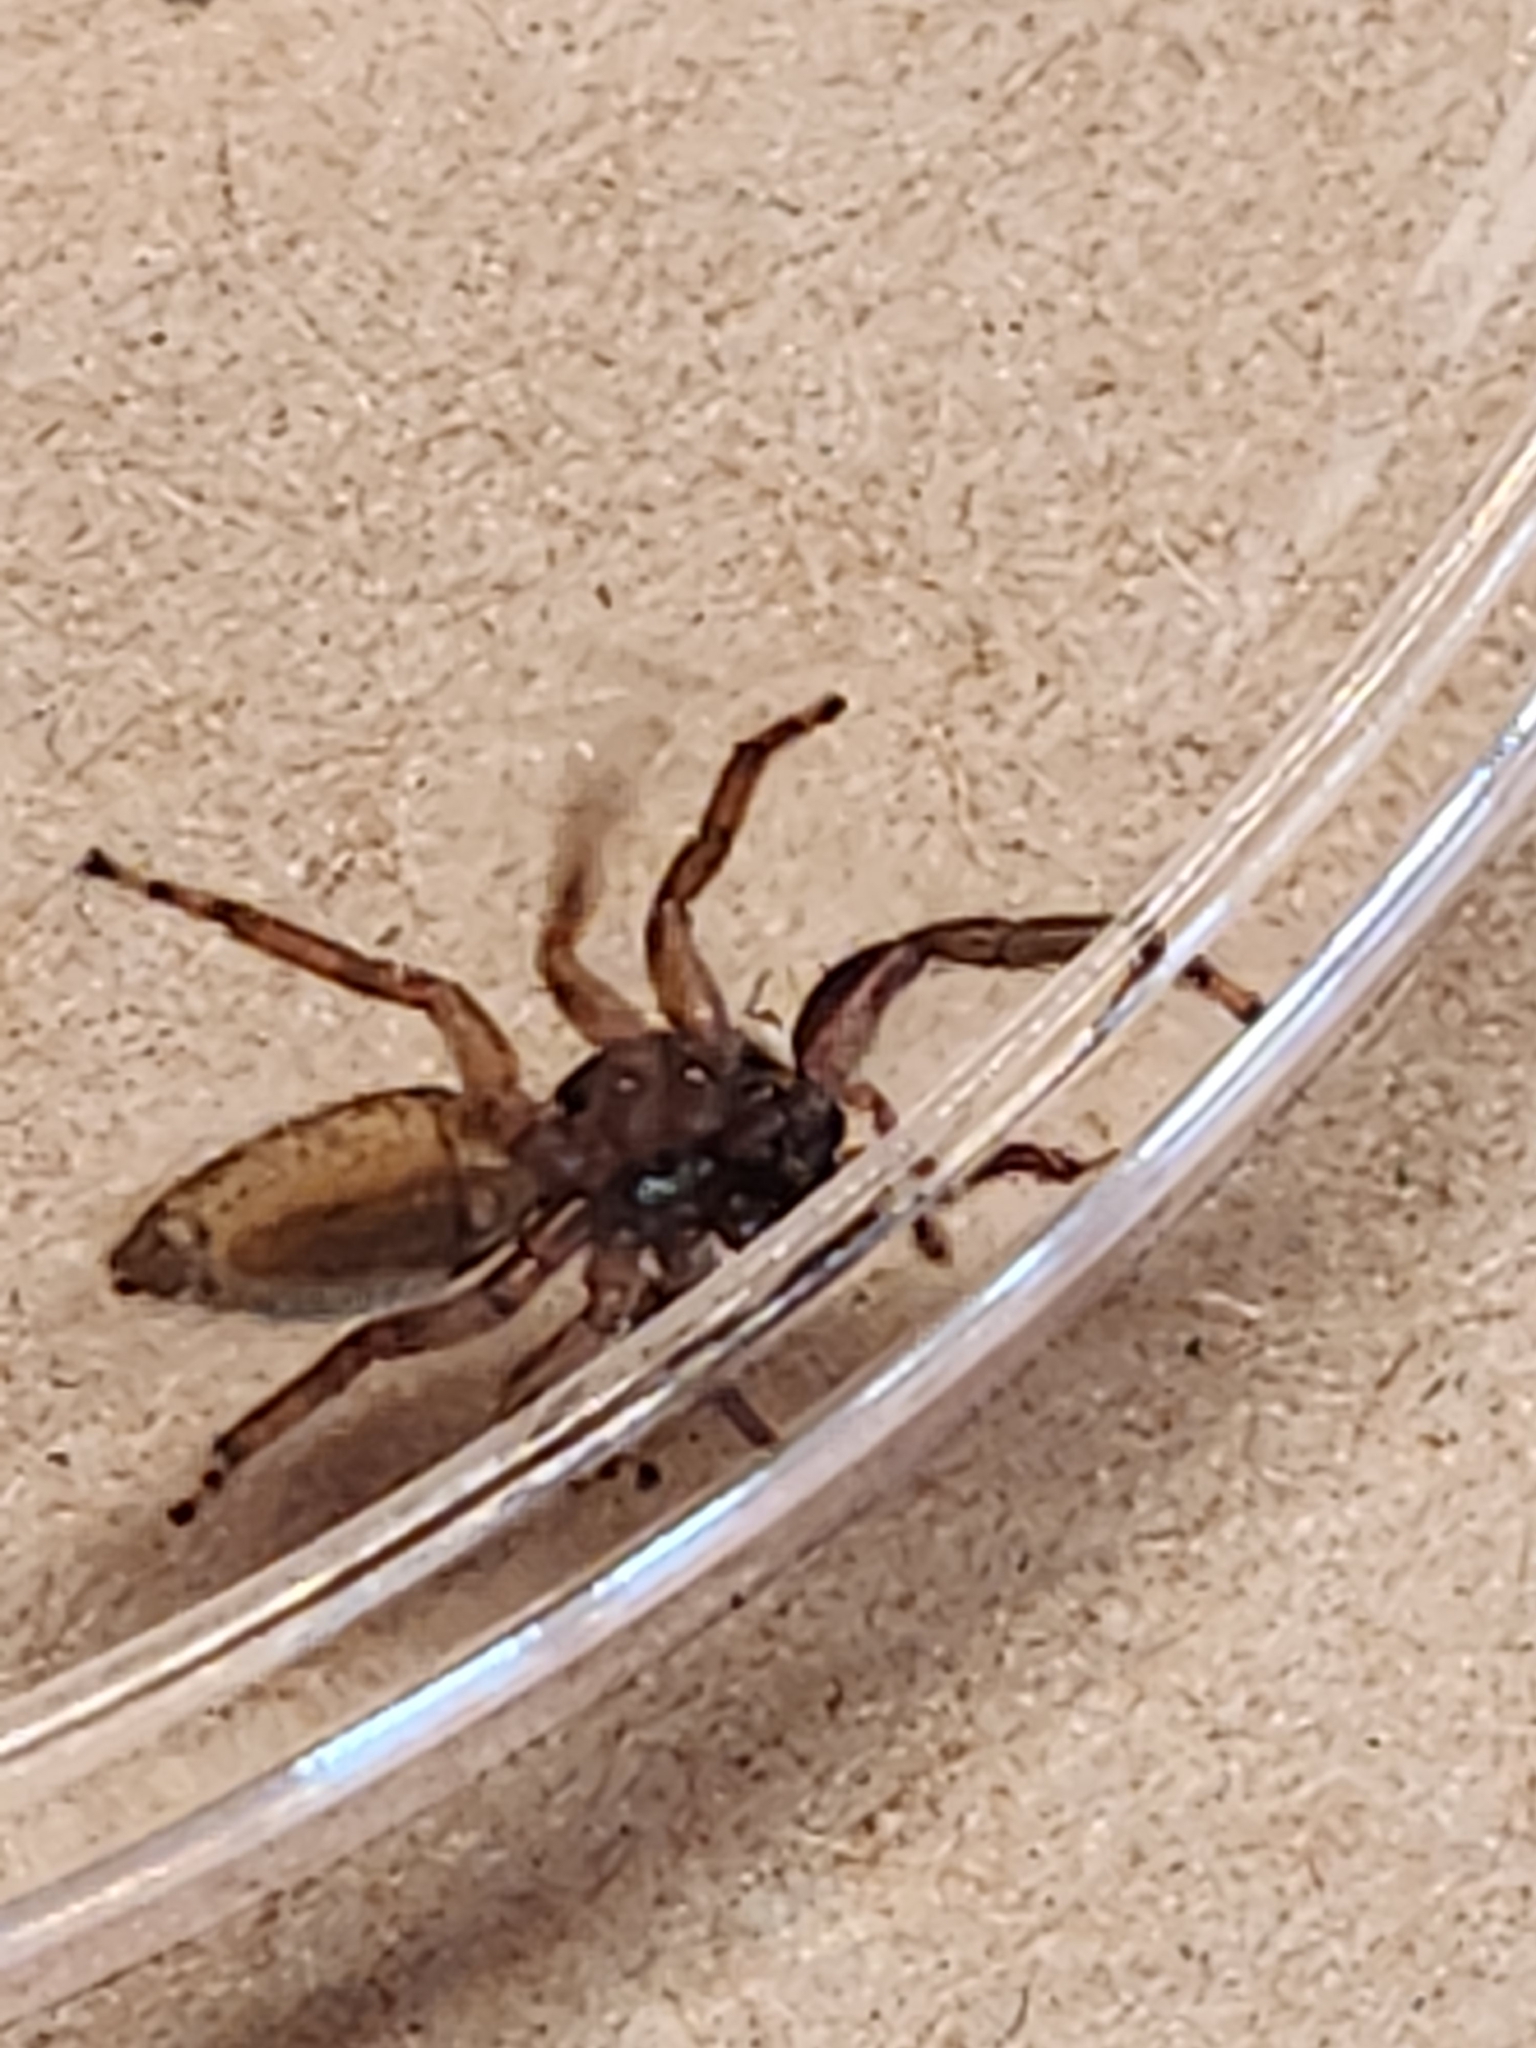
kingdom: Animalia
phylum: Arthropoda
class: Arachnida
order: Araneae
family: Salticidae
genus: Platycryptus
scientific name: Platycryptus undatus
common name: Tan jumping spider
